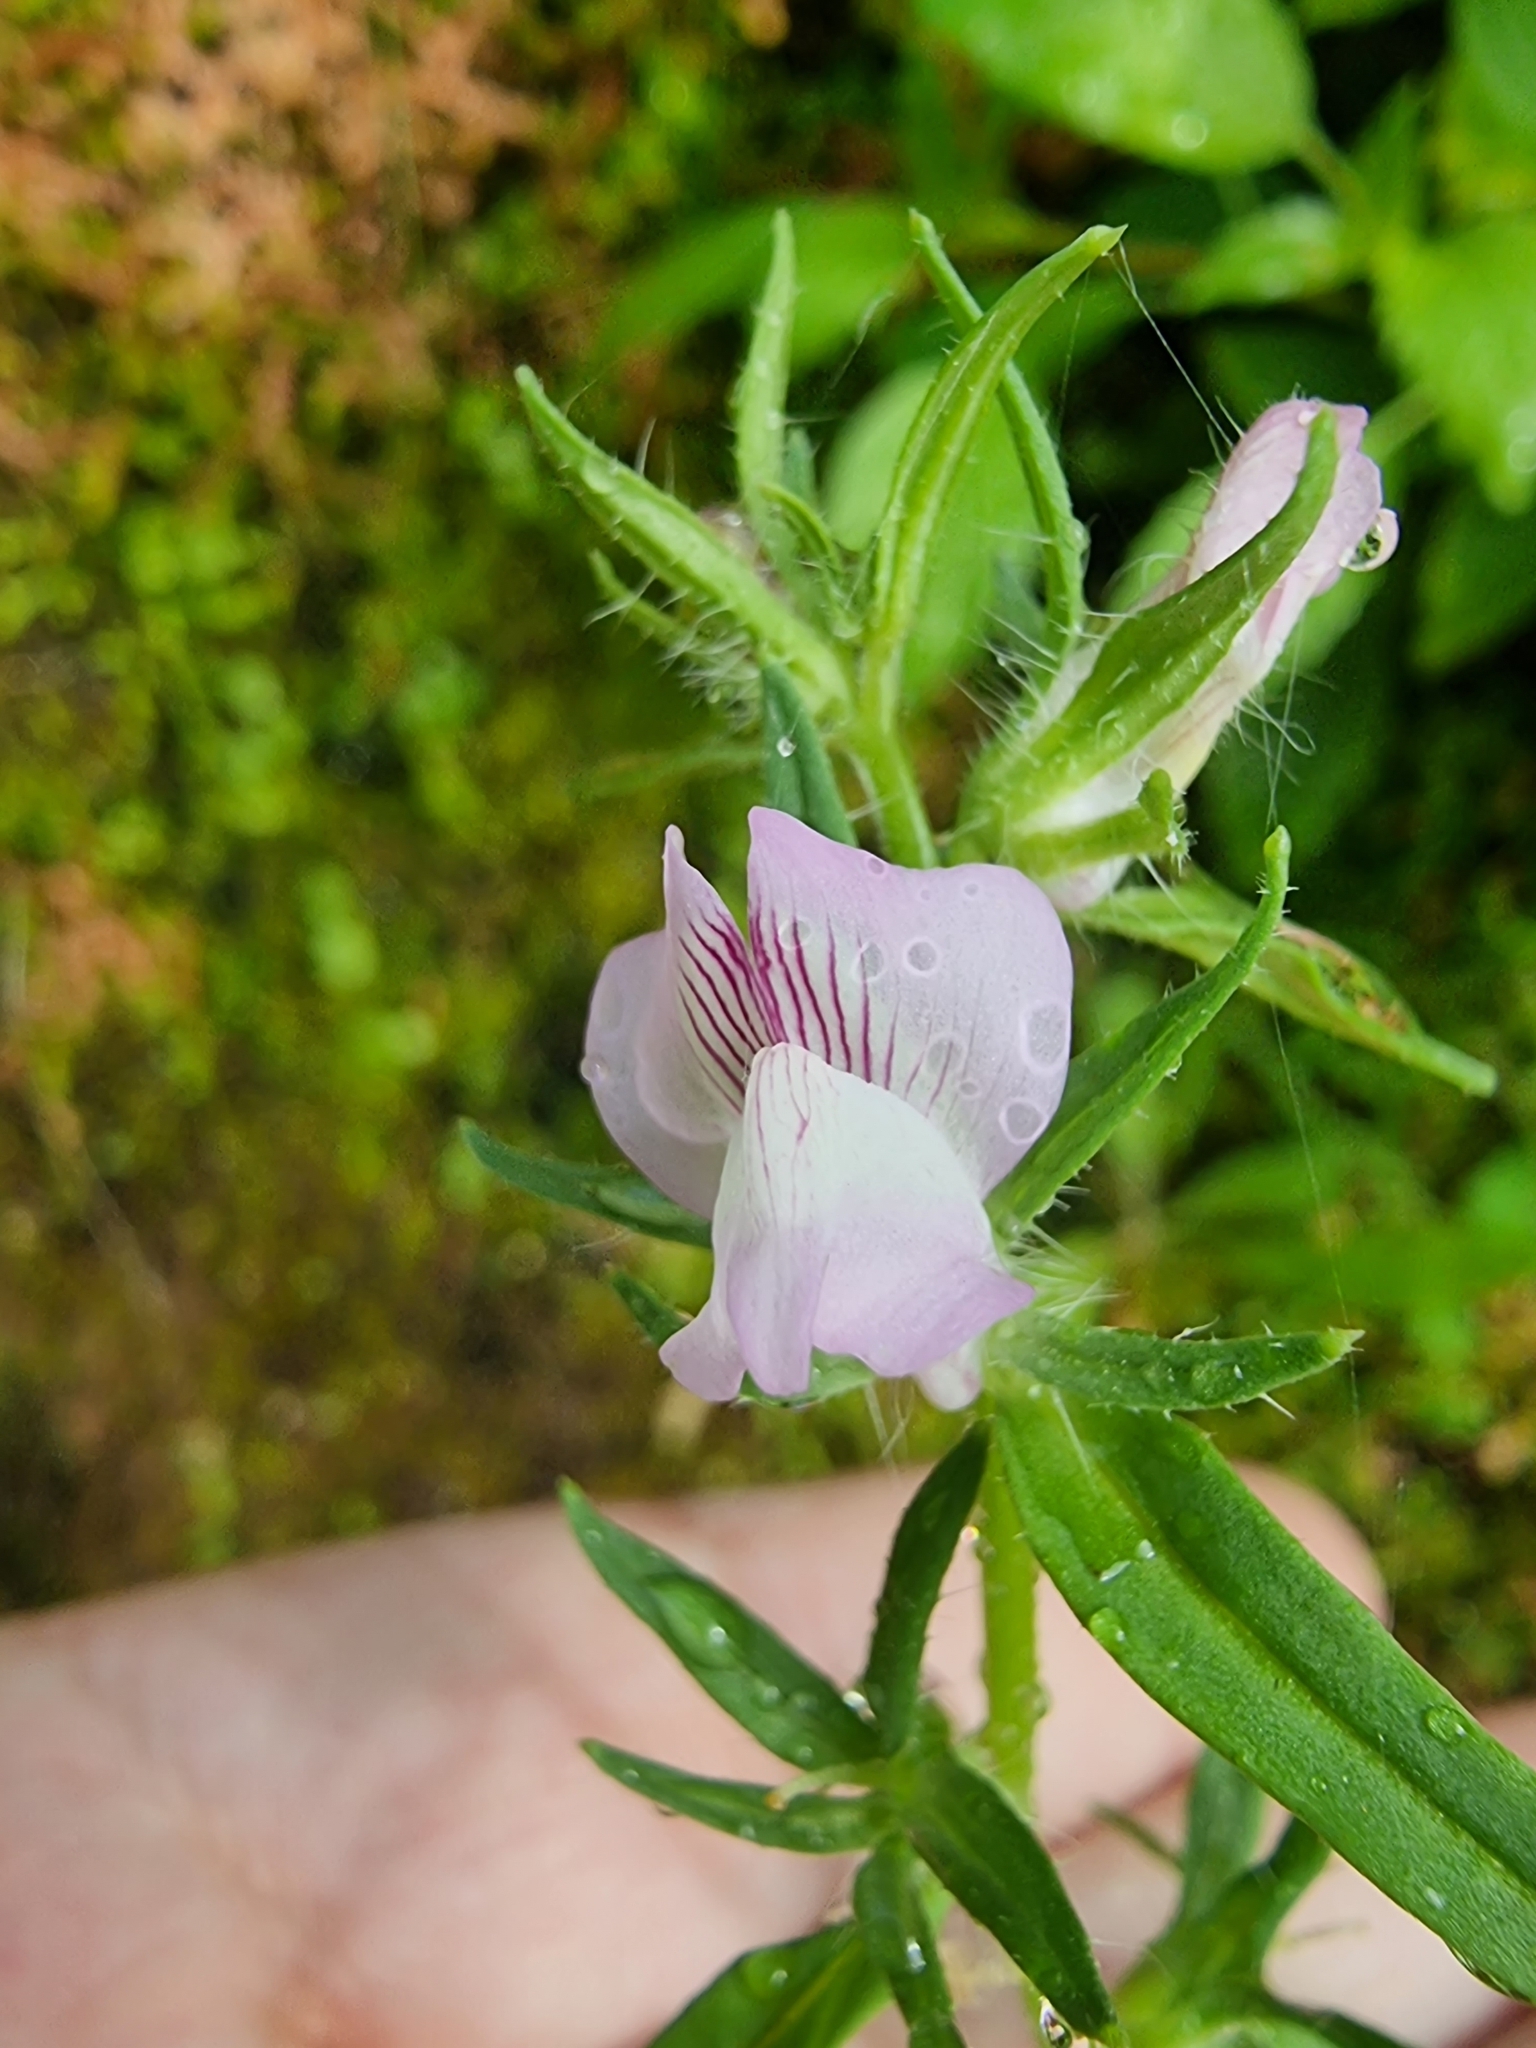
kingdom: Plantae
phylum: Tracheophyta
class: Magnoliopsida
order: Lamiales
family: Plantaginaceae
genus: Misopates
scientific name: Misopates orontium
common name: Weasel's-snout
